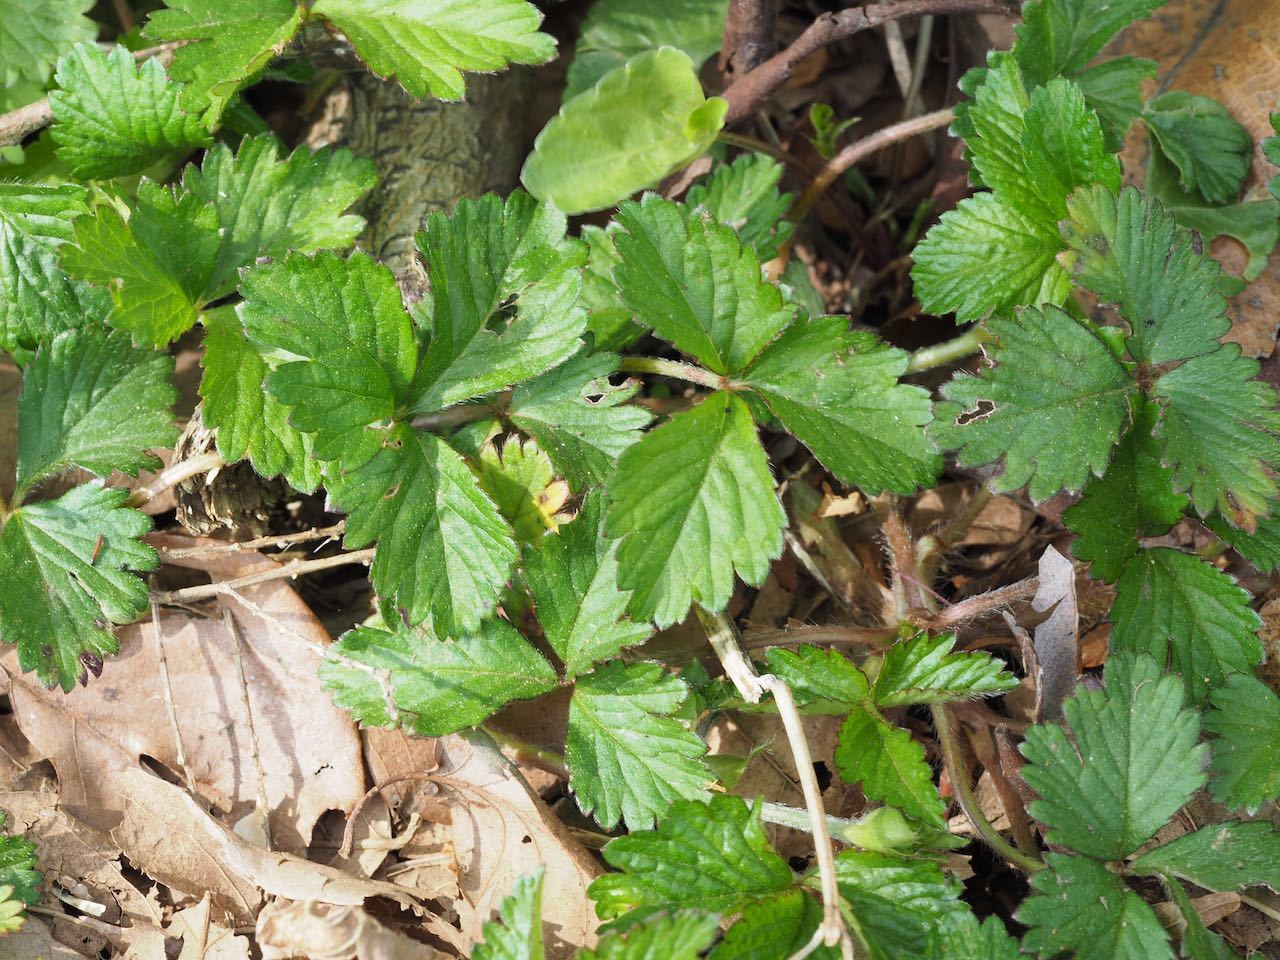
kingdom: Plantae
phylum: Tracheophyta
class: Magnoliopsida
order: Rosales
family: Rosaceae
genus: Potentilla
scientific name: Potentilla wallichiana
